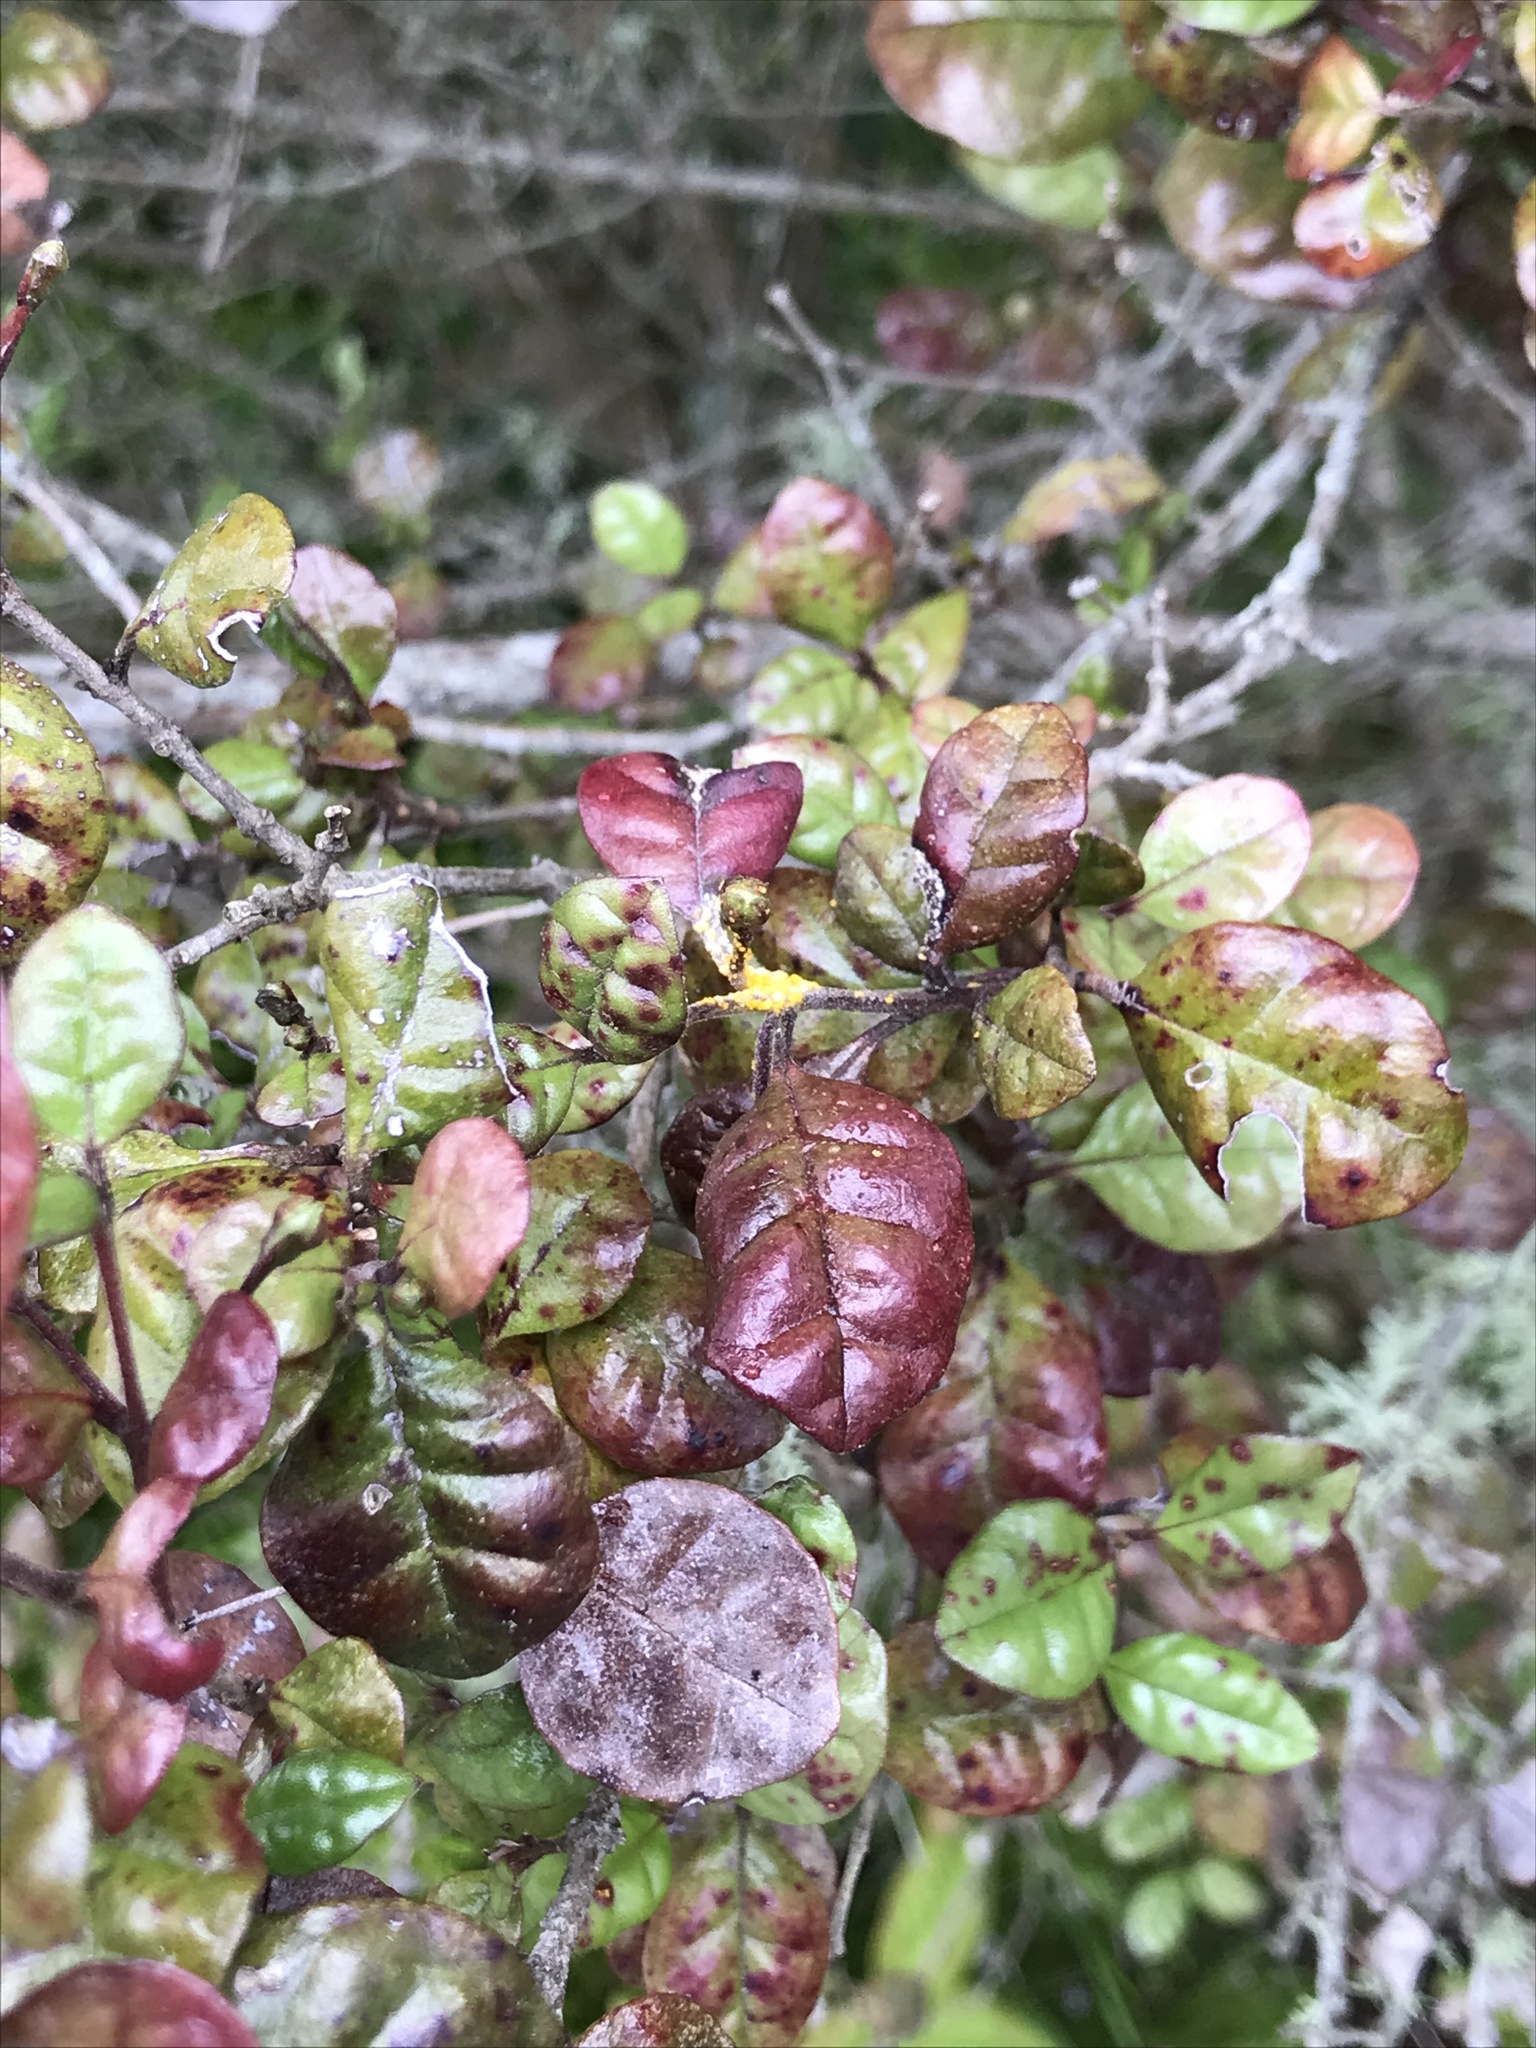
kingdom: Fungi
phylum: Basidiomycota
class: Pucciniomycetes
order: Pucciniales
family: Sphaerophragmiaceae
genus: Austropuccinia
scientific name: Austropuccinia psidii
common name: Myrtle rust
